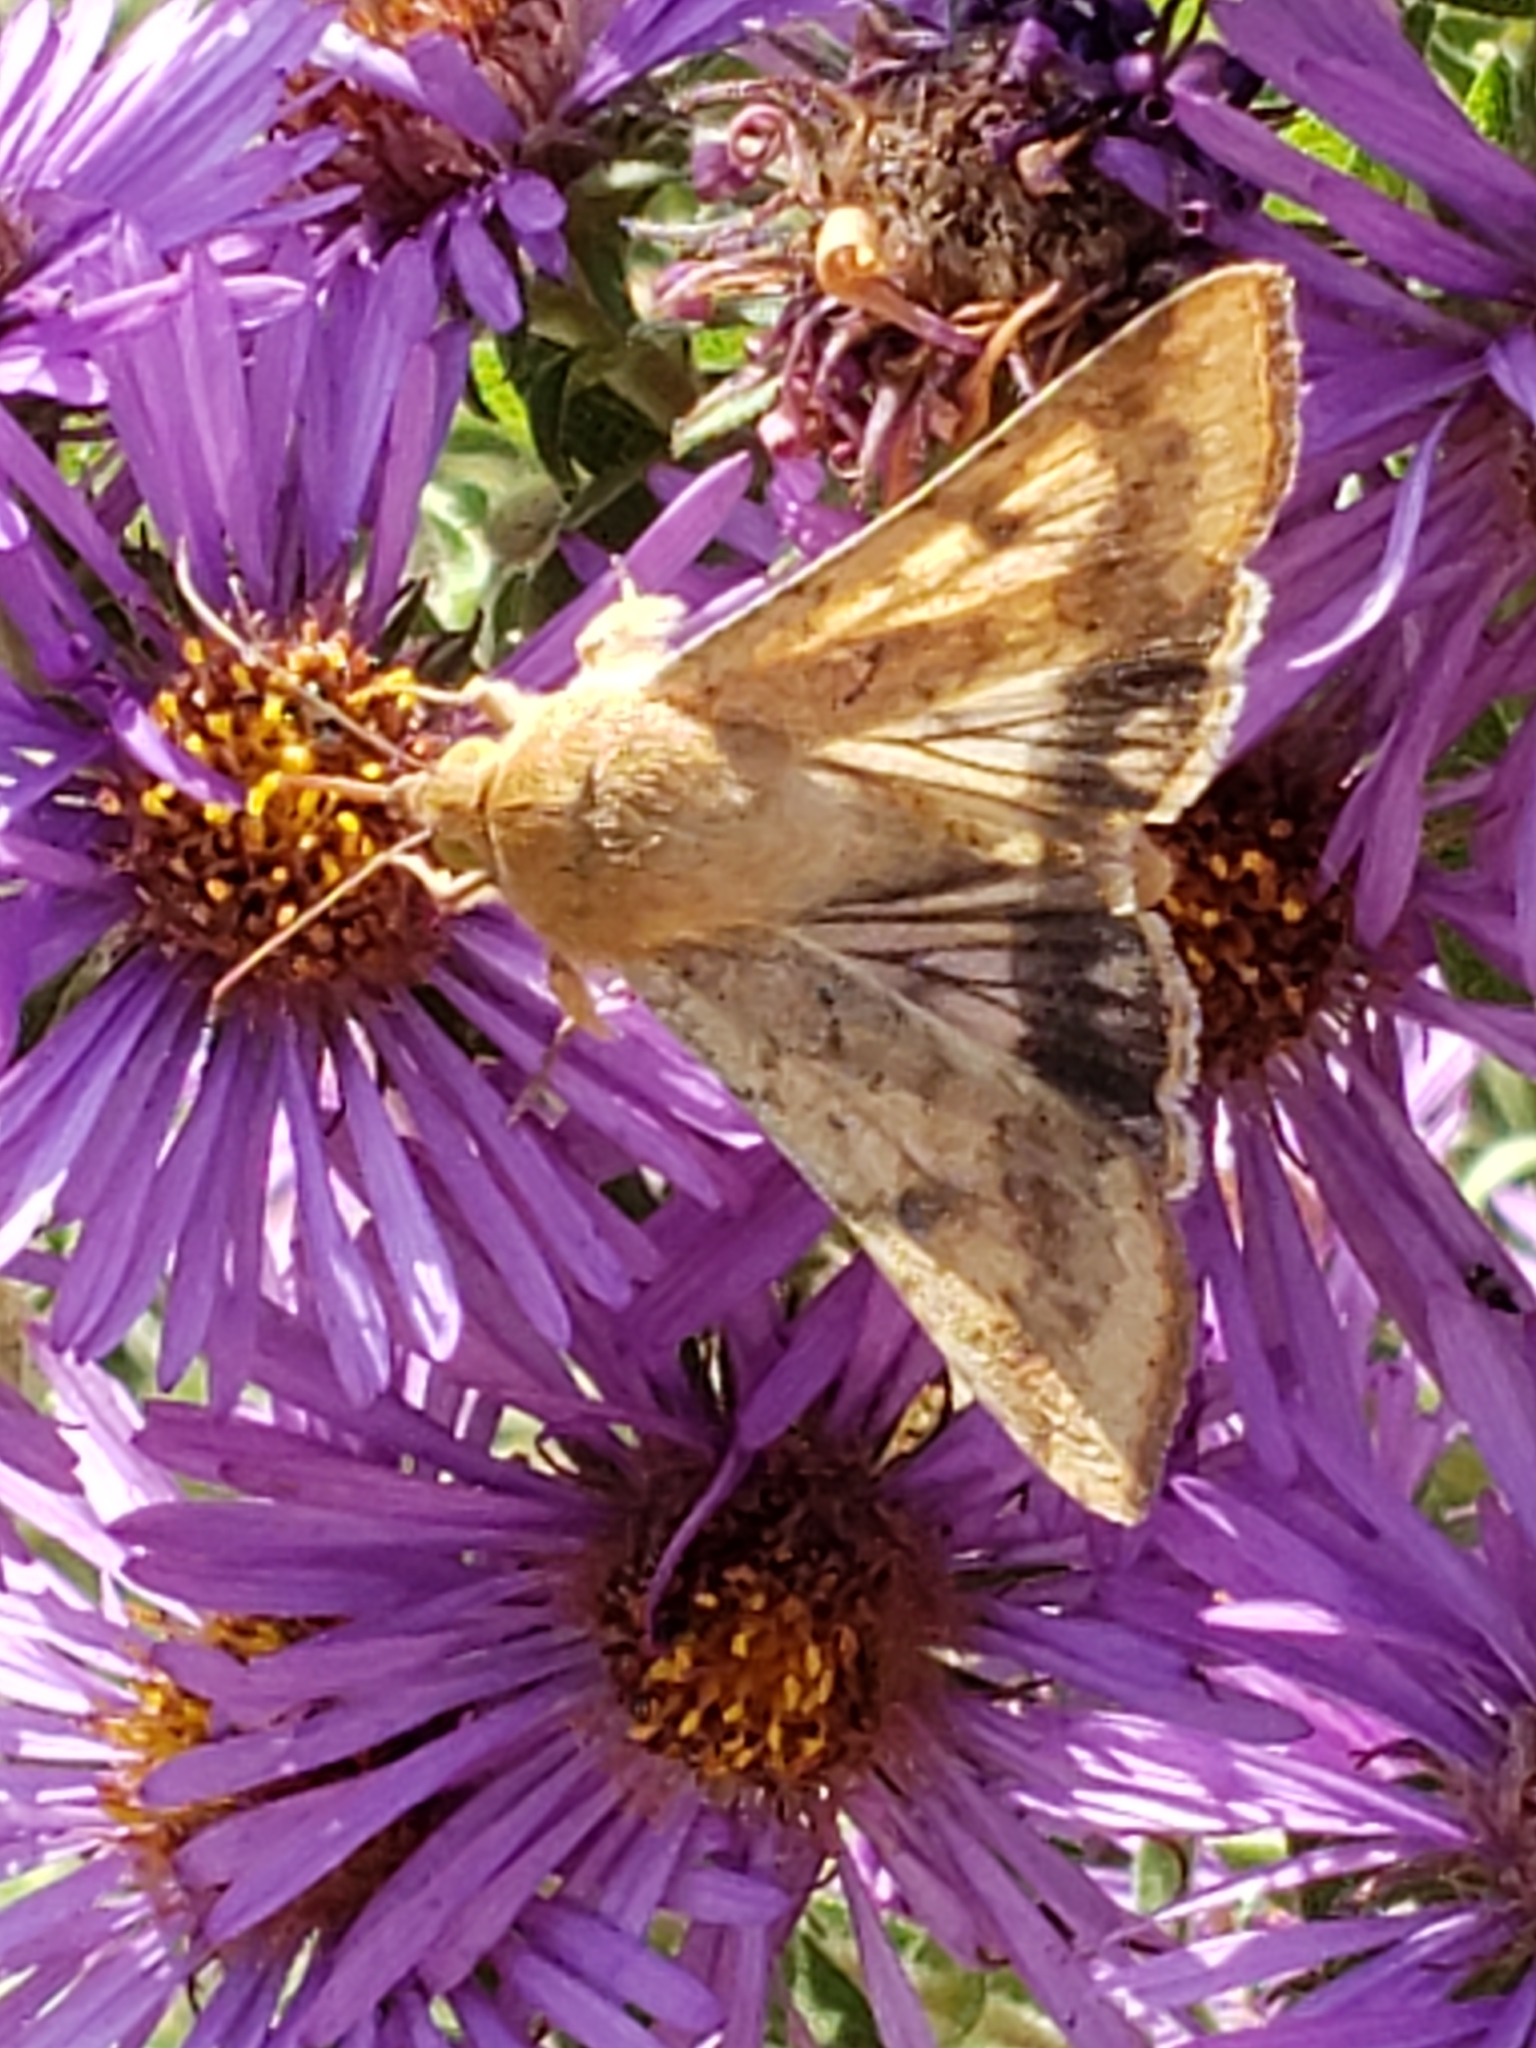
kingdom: Animalia
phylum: Arthropoda
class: Insecta
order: Lepidoptera
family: Noctuidae
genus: Helicoverpa
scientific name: Helicoverpa zea
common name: Bollworm
